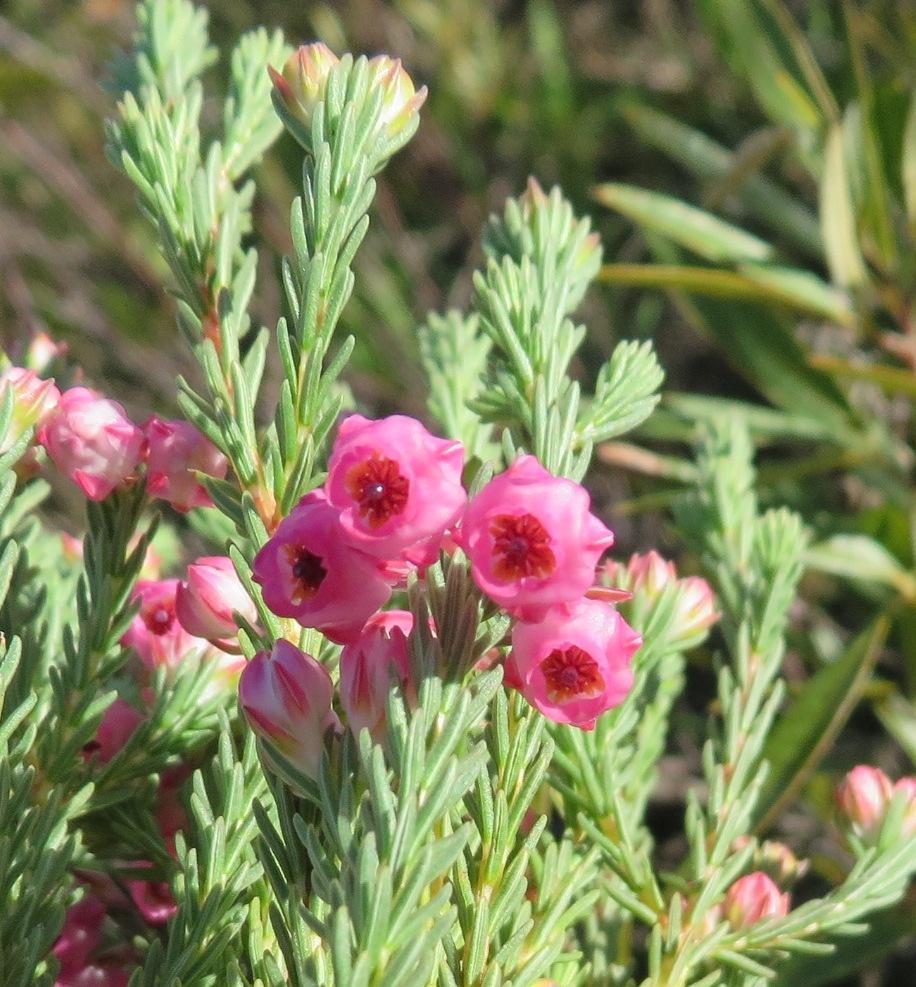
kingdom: Plantae
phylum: Tracheophyta
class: Magnoliopsida
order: Ericales
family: Ericaceae
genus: Erica
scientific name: Erica baccans
